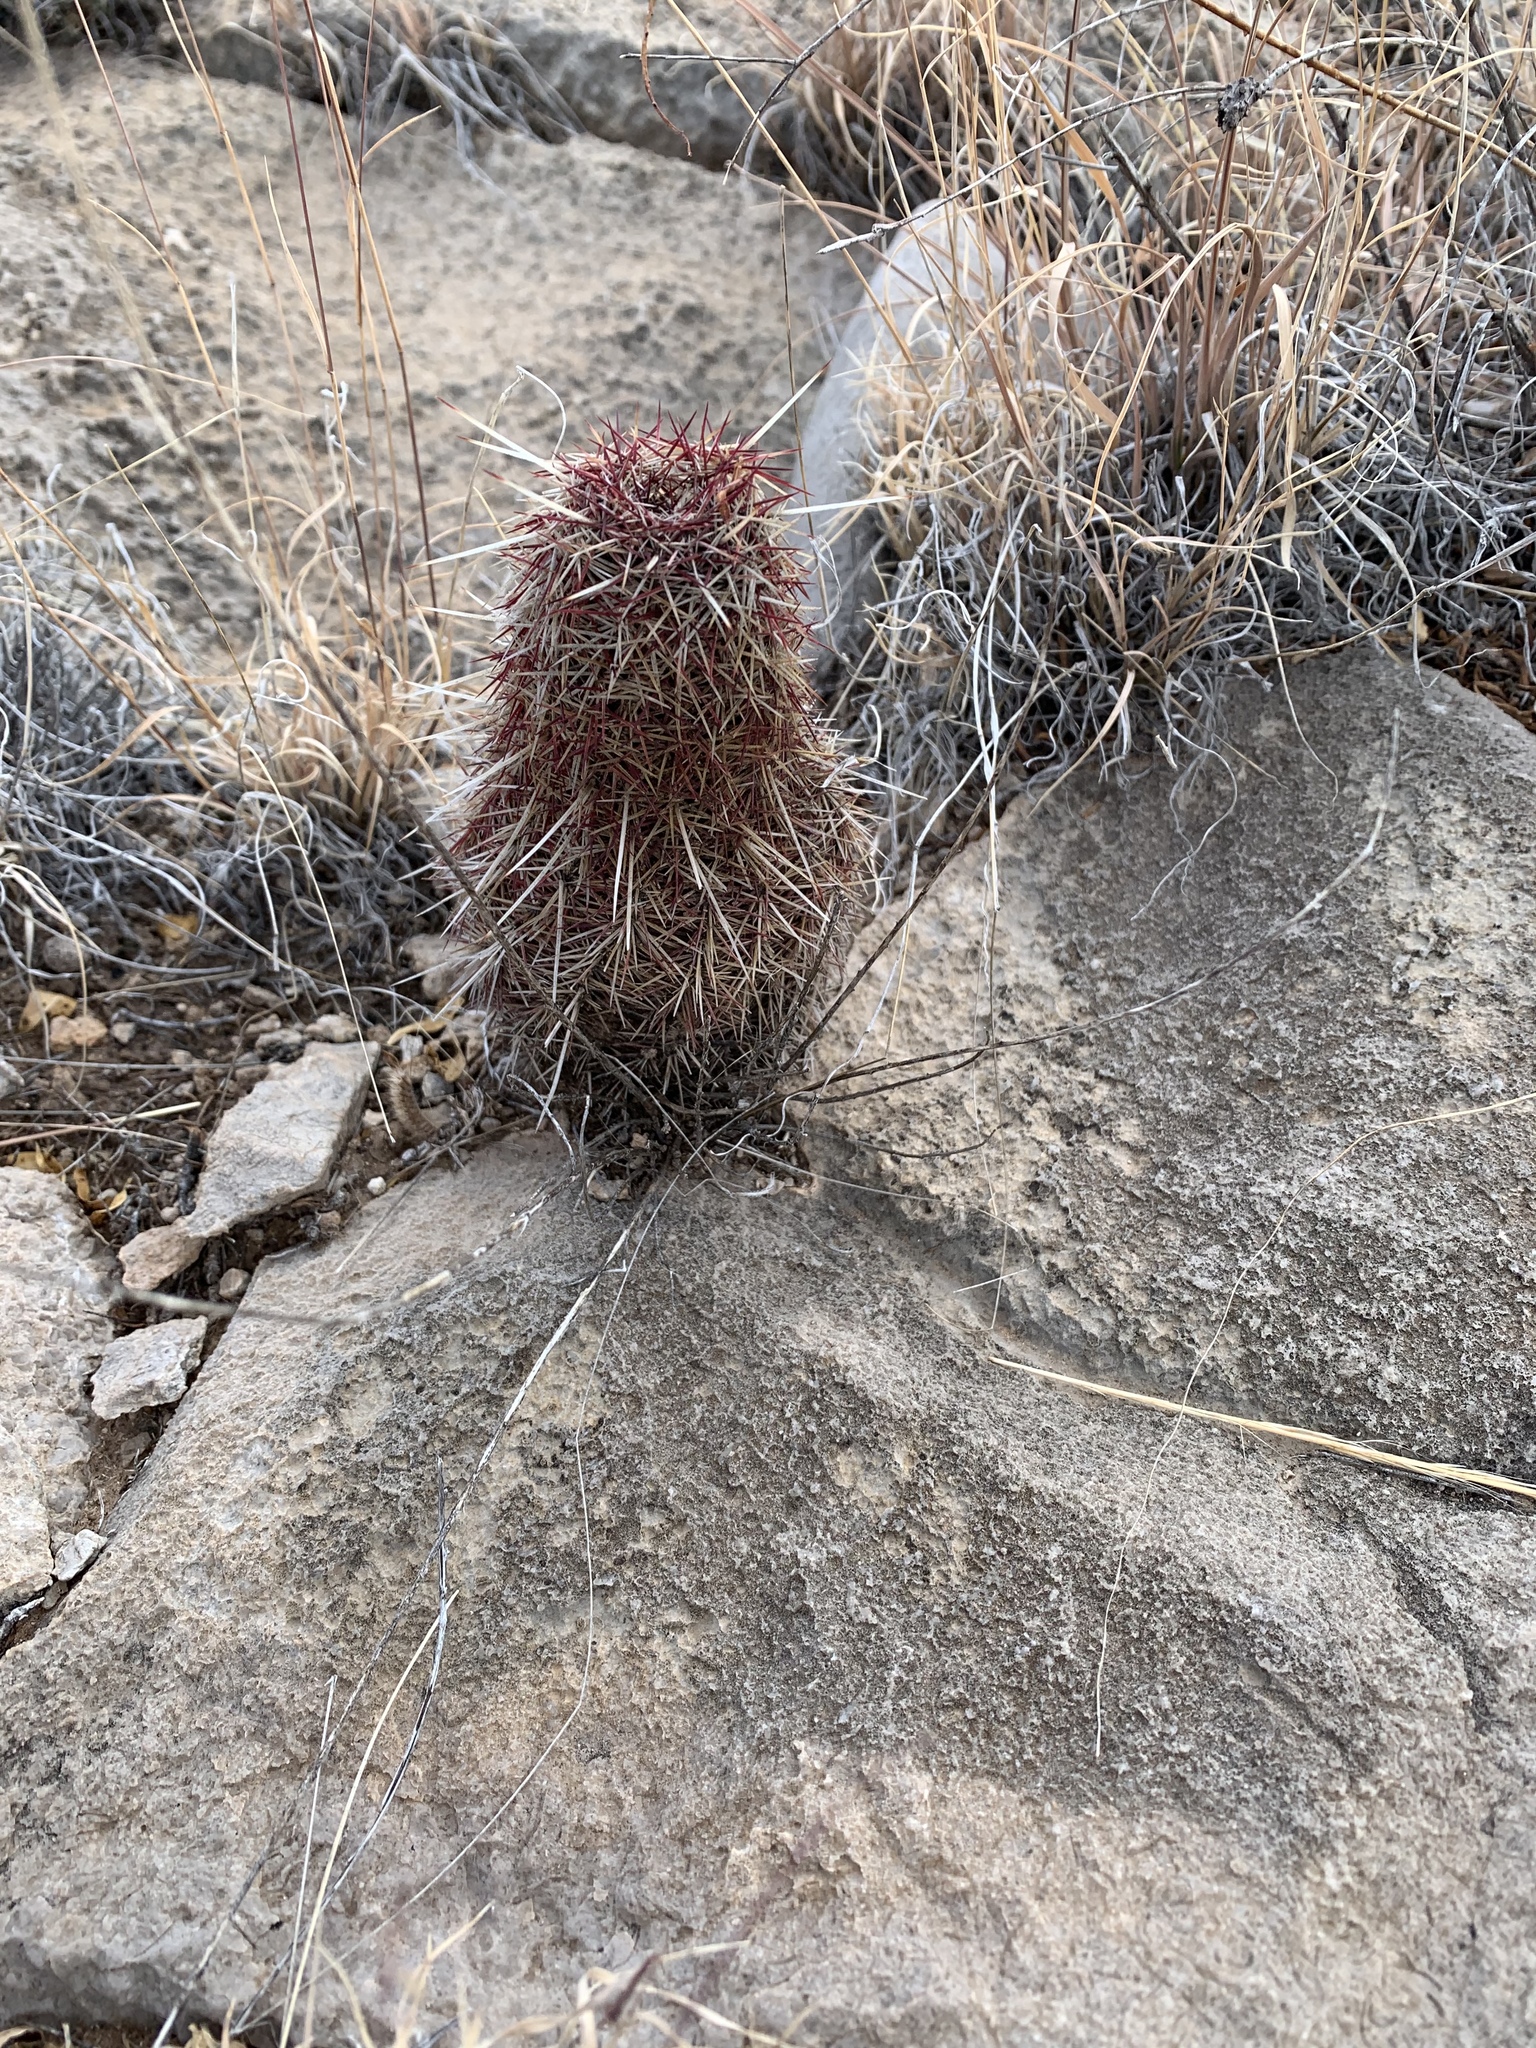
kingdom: Plantae
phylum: Tracheophyta
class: Magnoliopsida
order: Caryophyllales
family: Cactaceae
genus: Echinocereus
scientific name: Echinocereus viridiflorus
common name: Nylon hedgehog cactus
